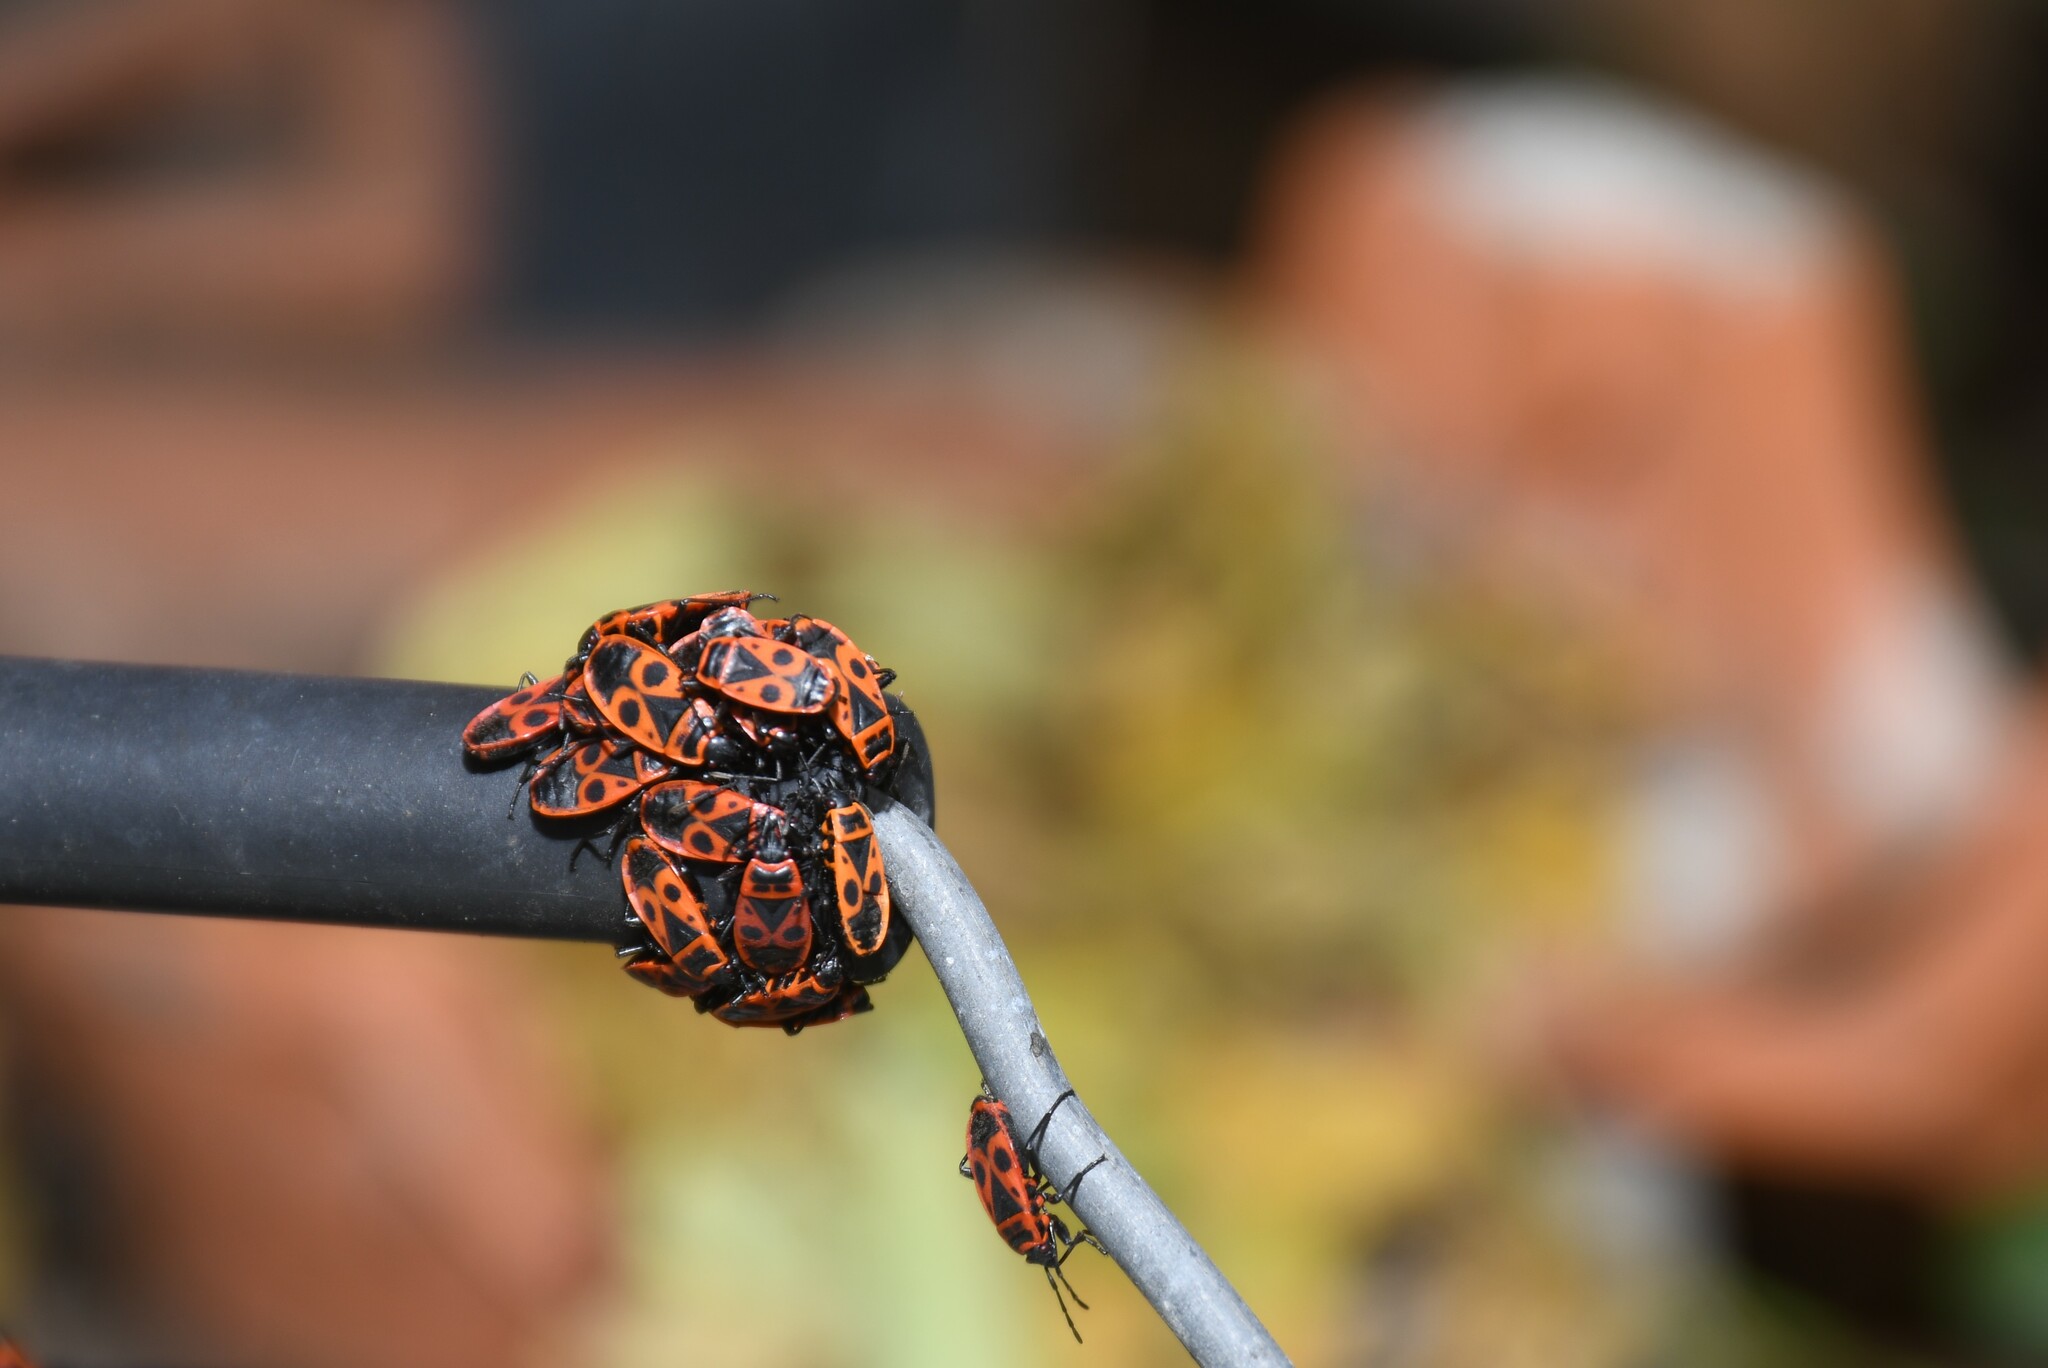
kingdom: Animalia
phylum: Arthropoda
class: Insecta
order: Hemiptera
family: Pyrrhocoridae
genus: Pyrrhocoris
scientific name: Pyrrhocoris apterus
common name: Firebug
